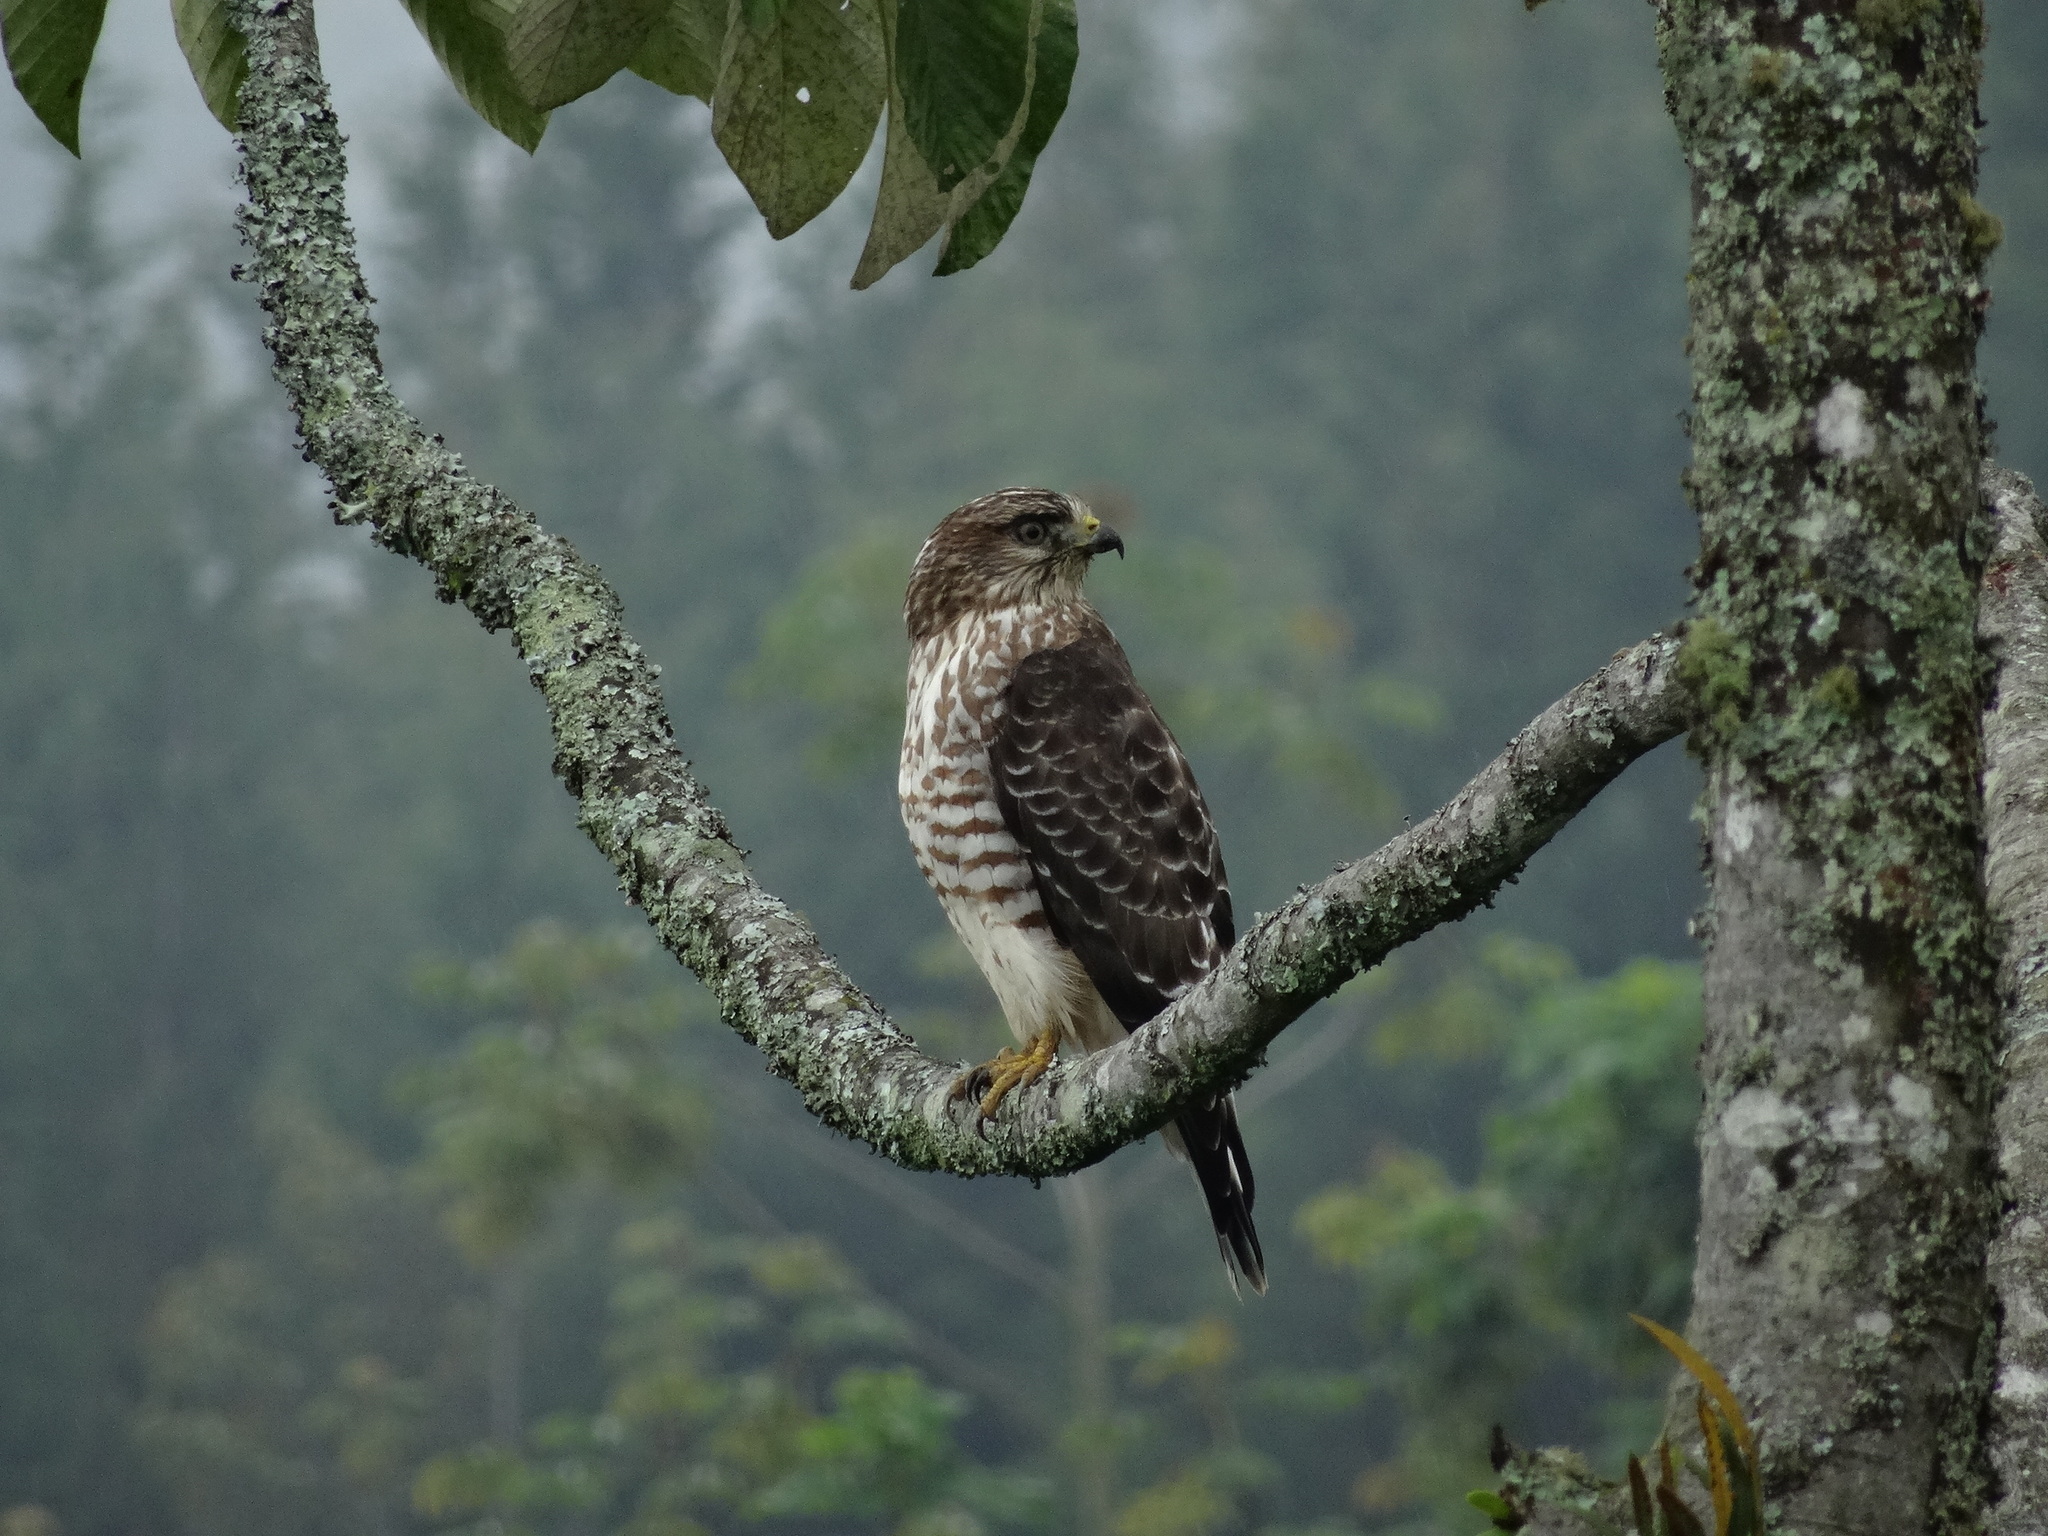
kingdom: Animalia
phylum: Chordata
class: Aves
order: Accipitriformes
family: Accipitridae
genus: Buteo
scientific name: Buteo platypterus
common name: Broad-winged hawk
